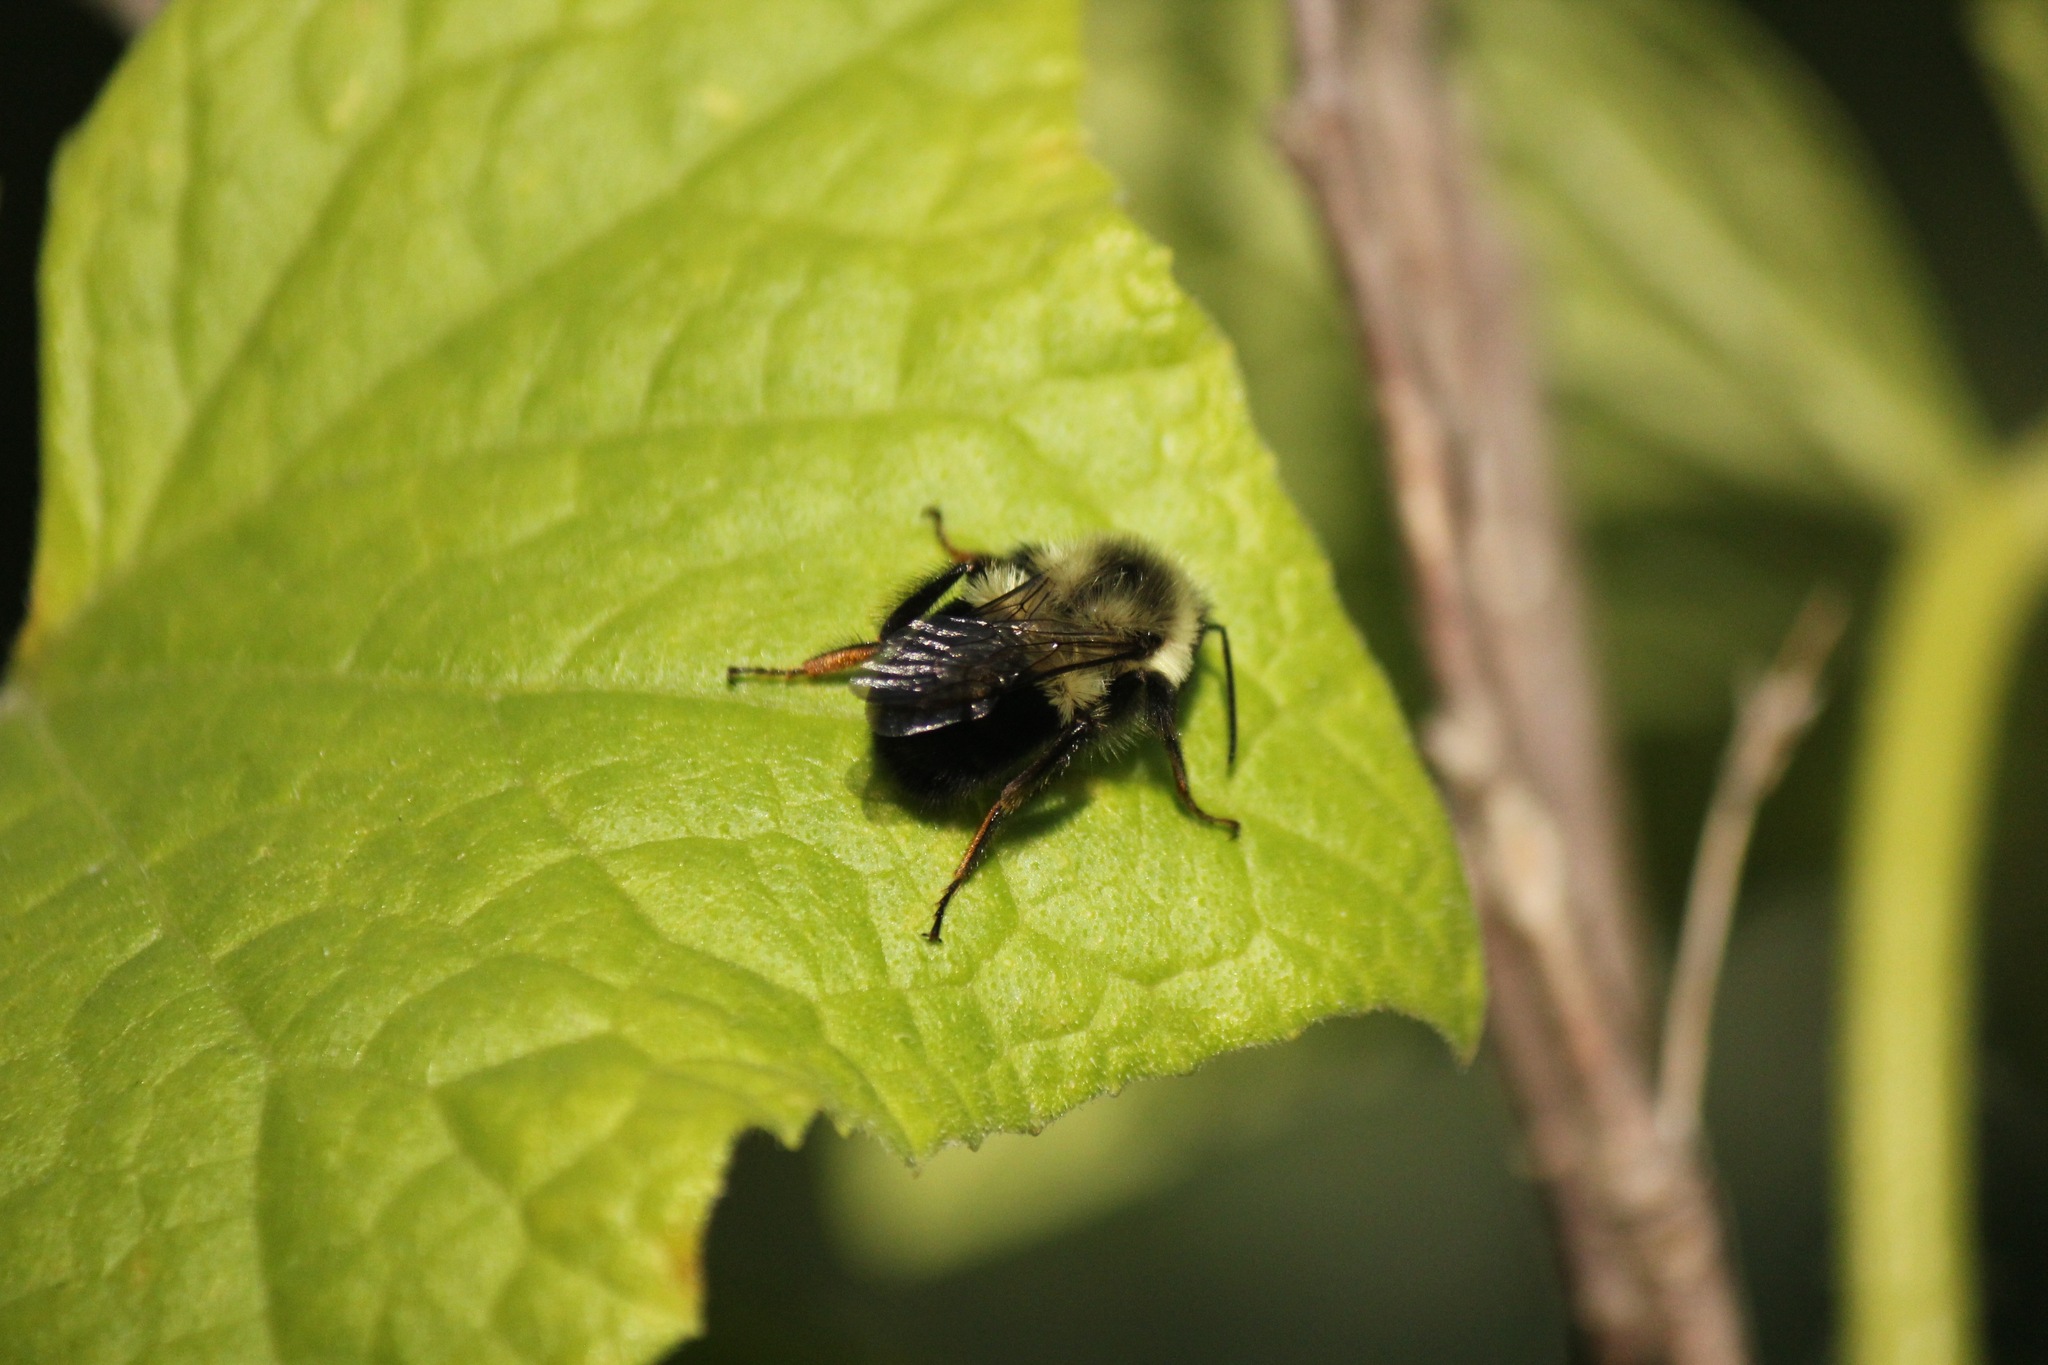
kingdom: Animalia
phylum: Arthropoda
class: Insecta
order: Hymenoptera
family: Apidae
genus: Bombus
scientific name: Bombus impatiens
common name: Common eastern bumble bee
